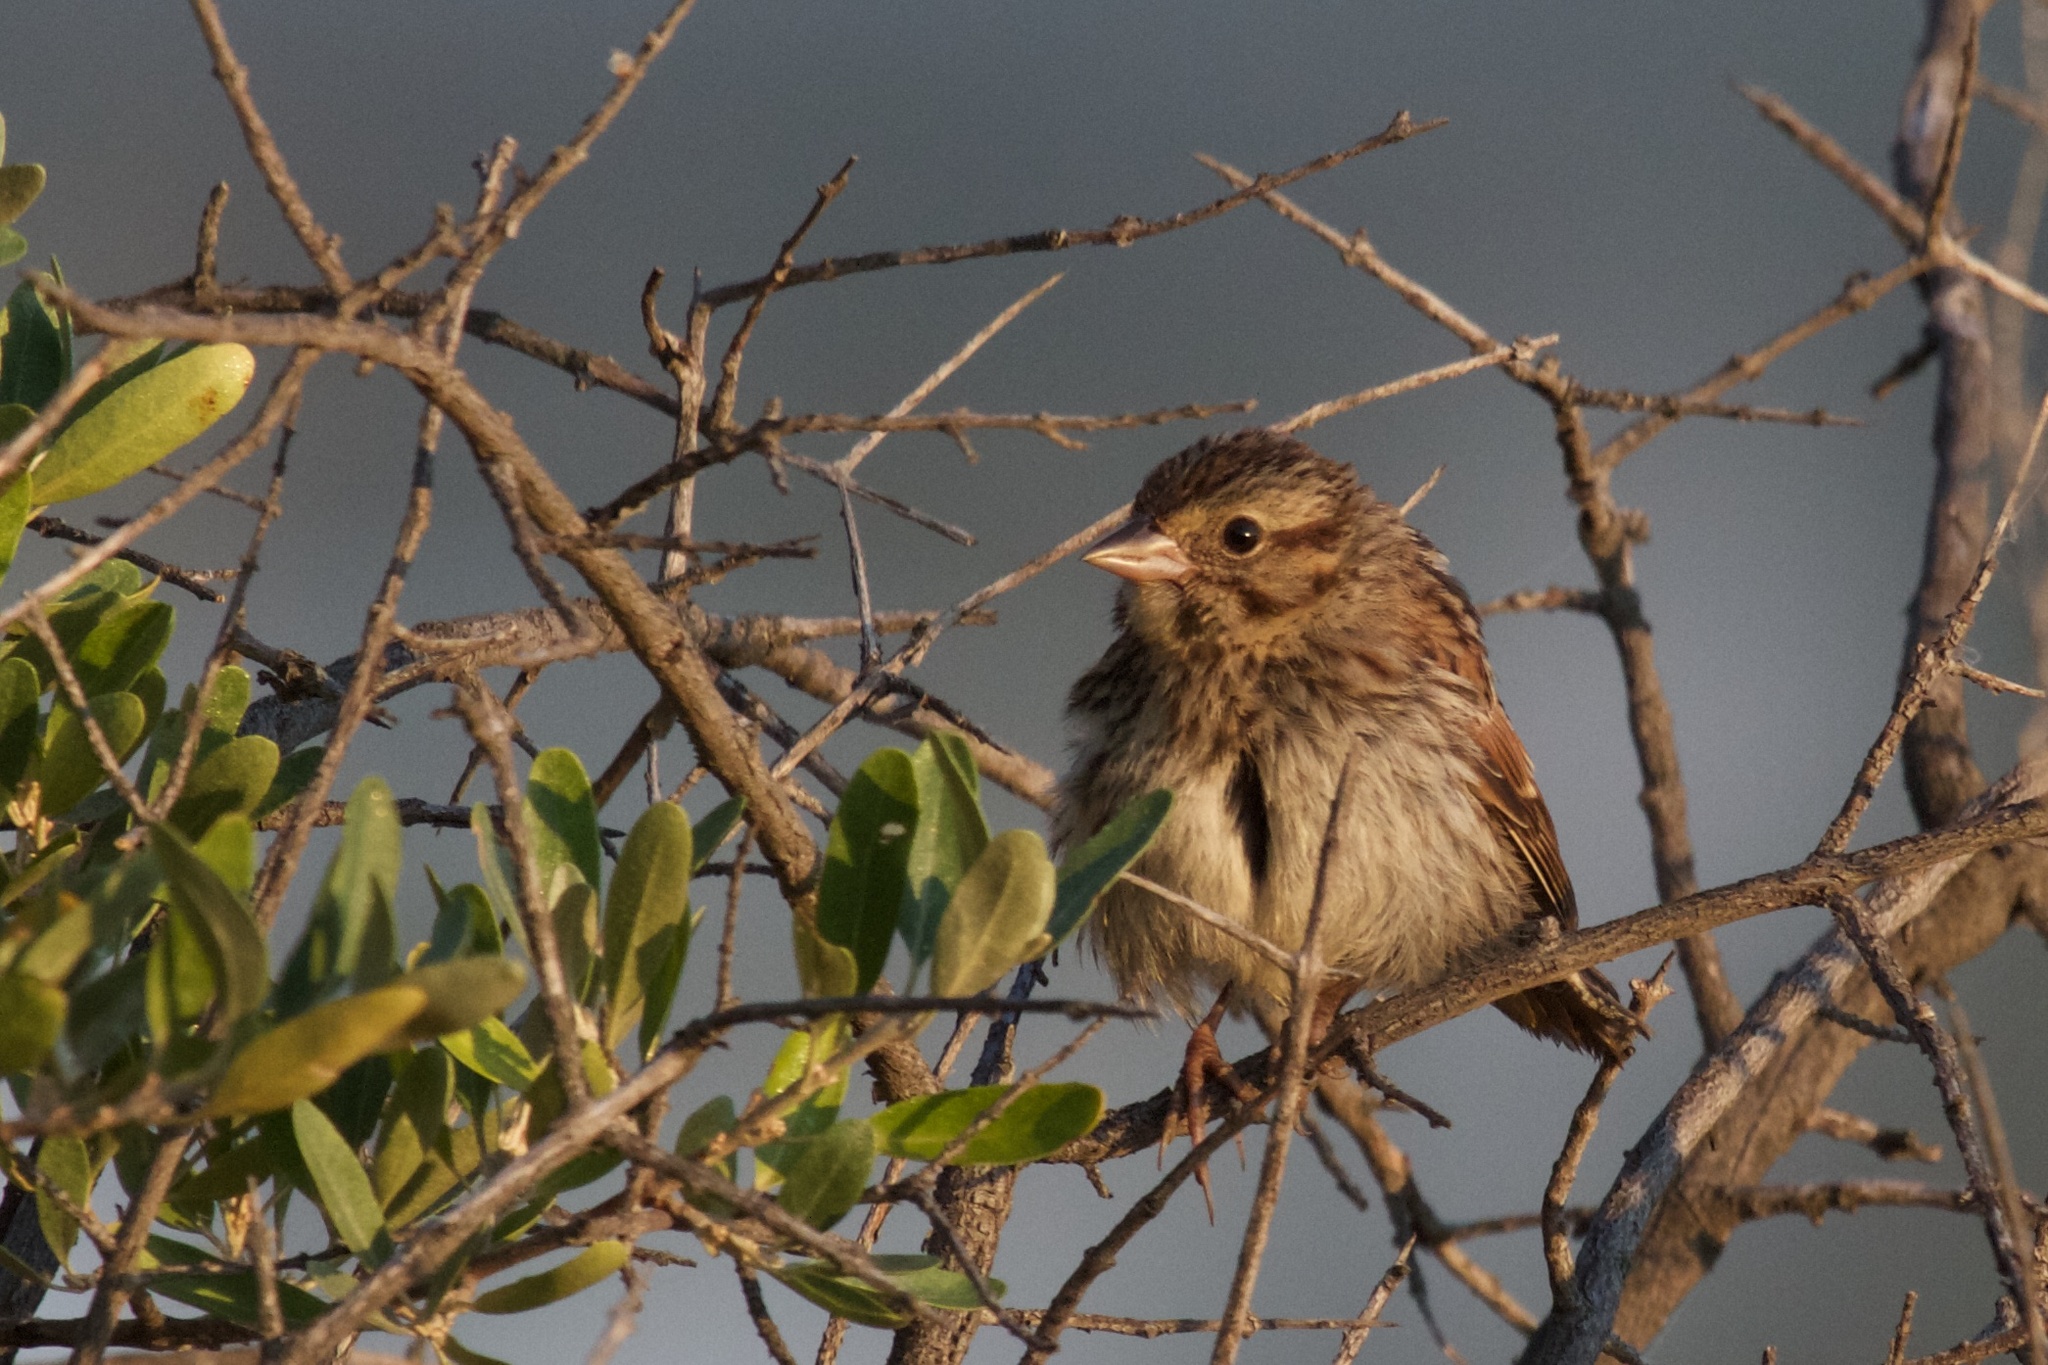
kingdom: Animalia
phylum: Chordata
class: Aves
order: Passeriformes
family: Passerellidae
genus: Melospiza
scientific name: Melospiza melodia
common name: Song sparrow
